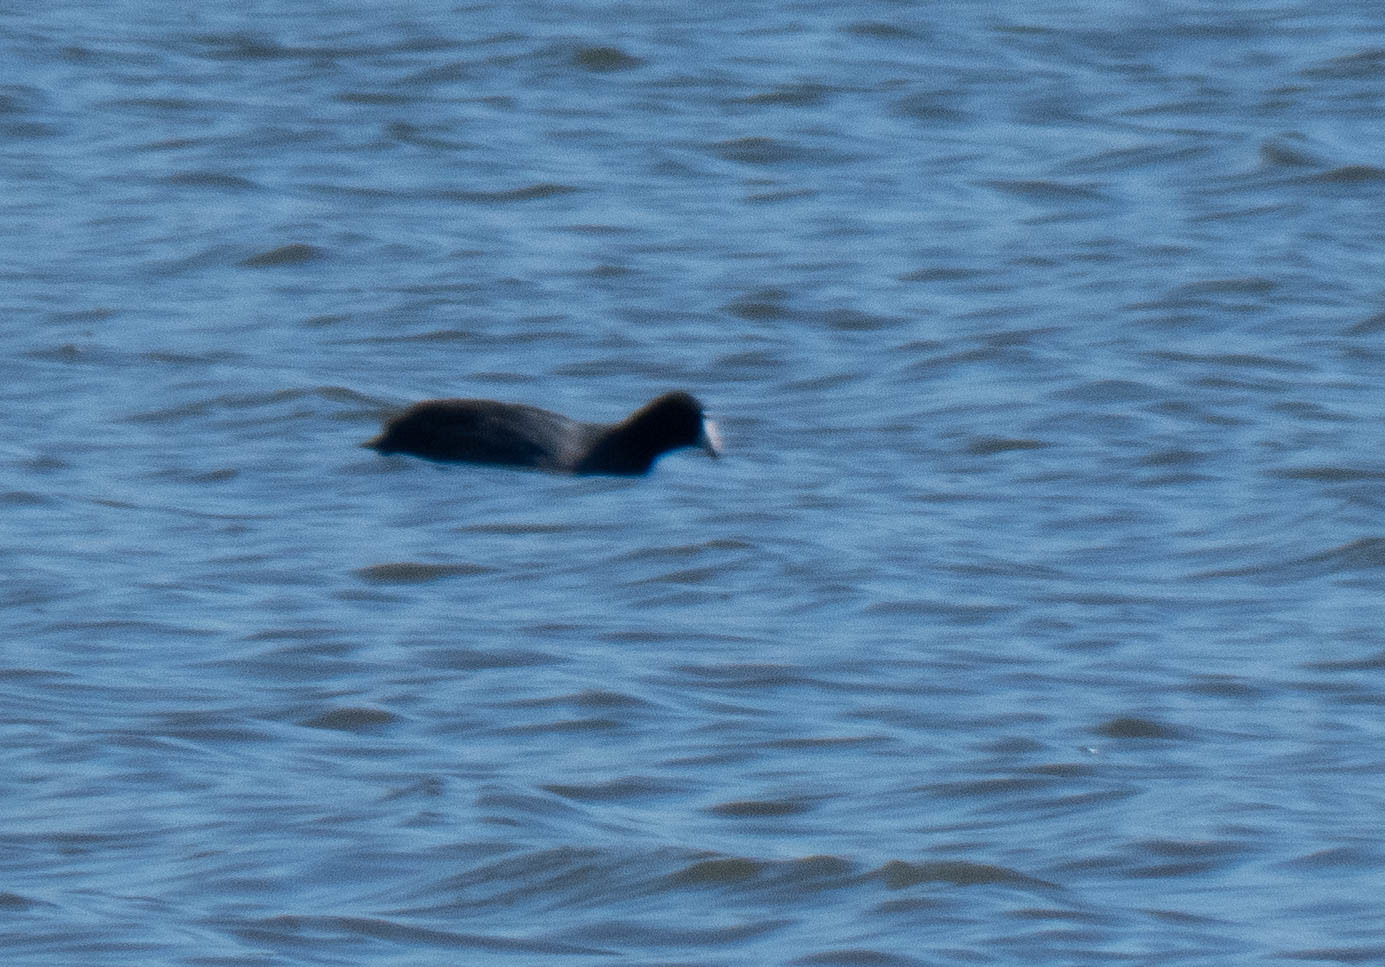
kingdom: Animalia
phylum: Chordata
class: Aves
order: Gruiformes
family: Rallidae
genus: Fulica
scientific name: Fulica americana
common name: American coot
